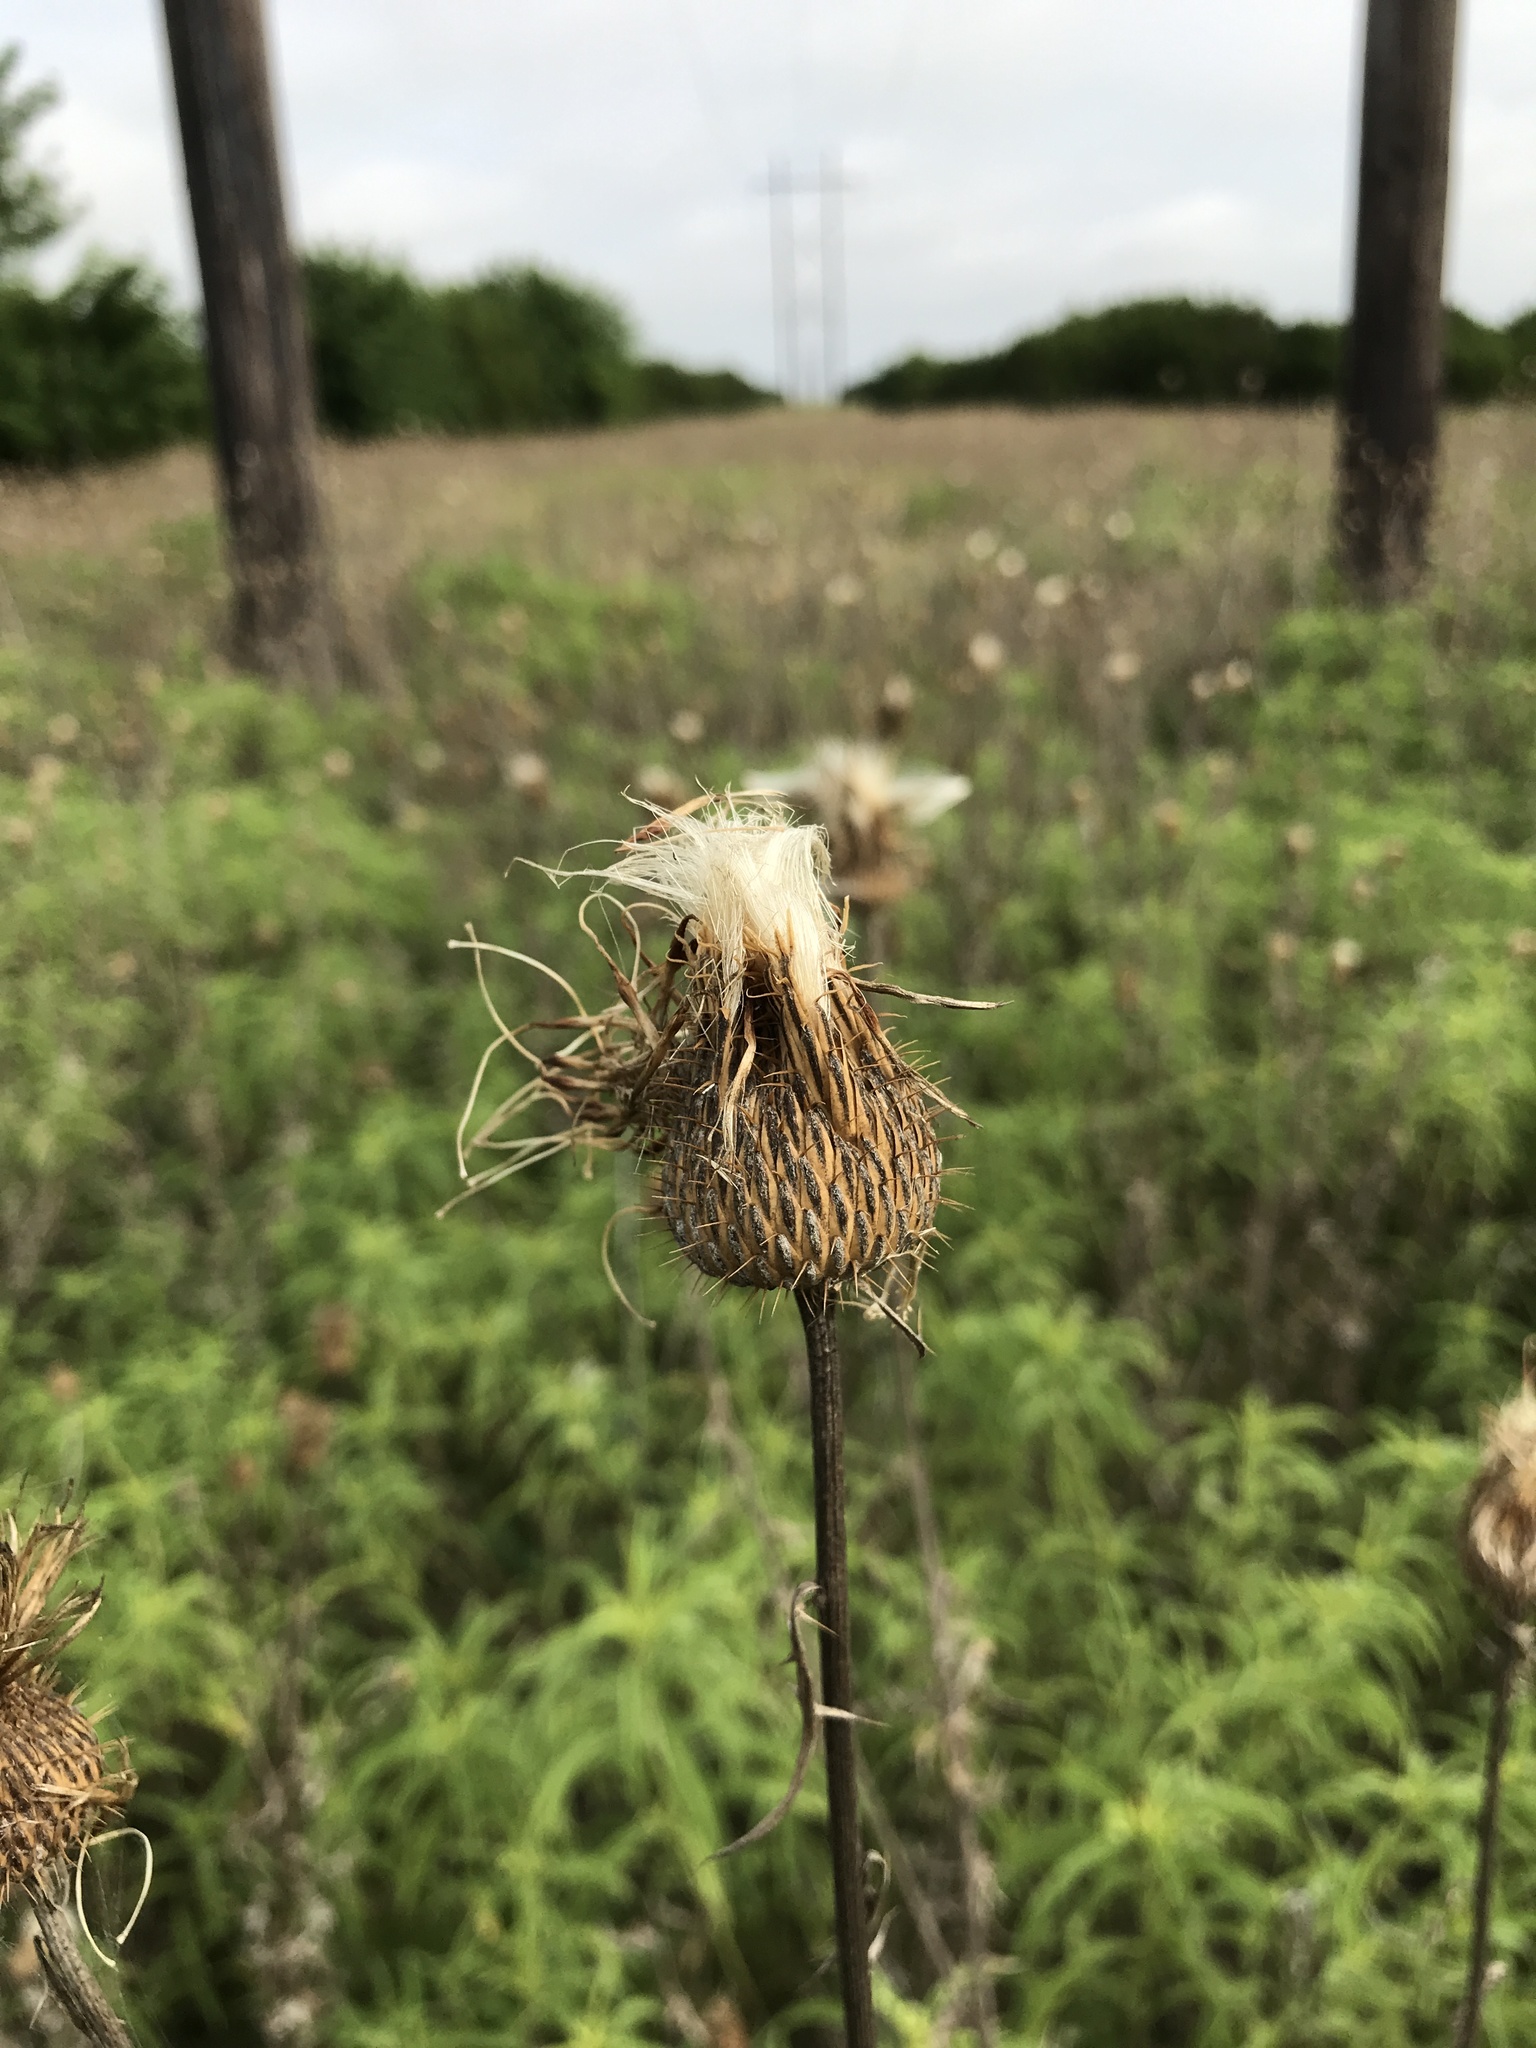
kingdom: Plantae
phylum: Tracheophyta
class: Magnoliopsida
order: Asterales
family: Asteraceae
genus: Cirsium
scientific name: Cirsium texanum
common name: Texas purple thistle
